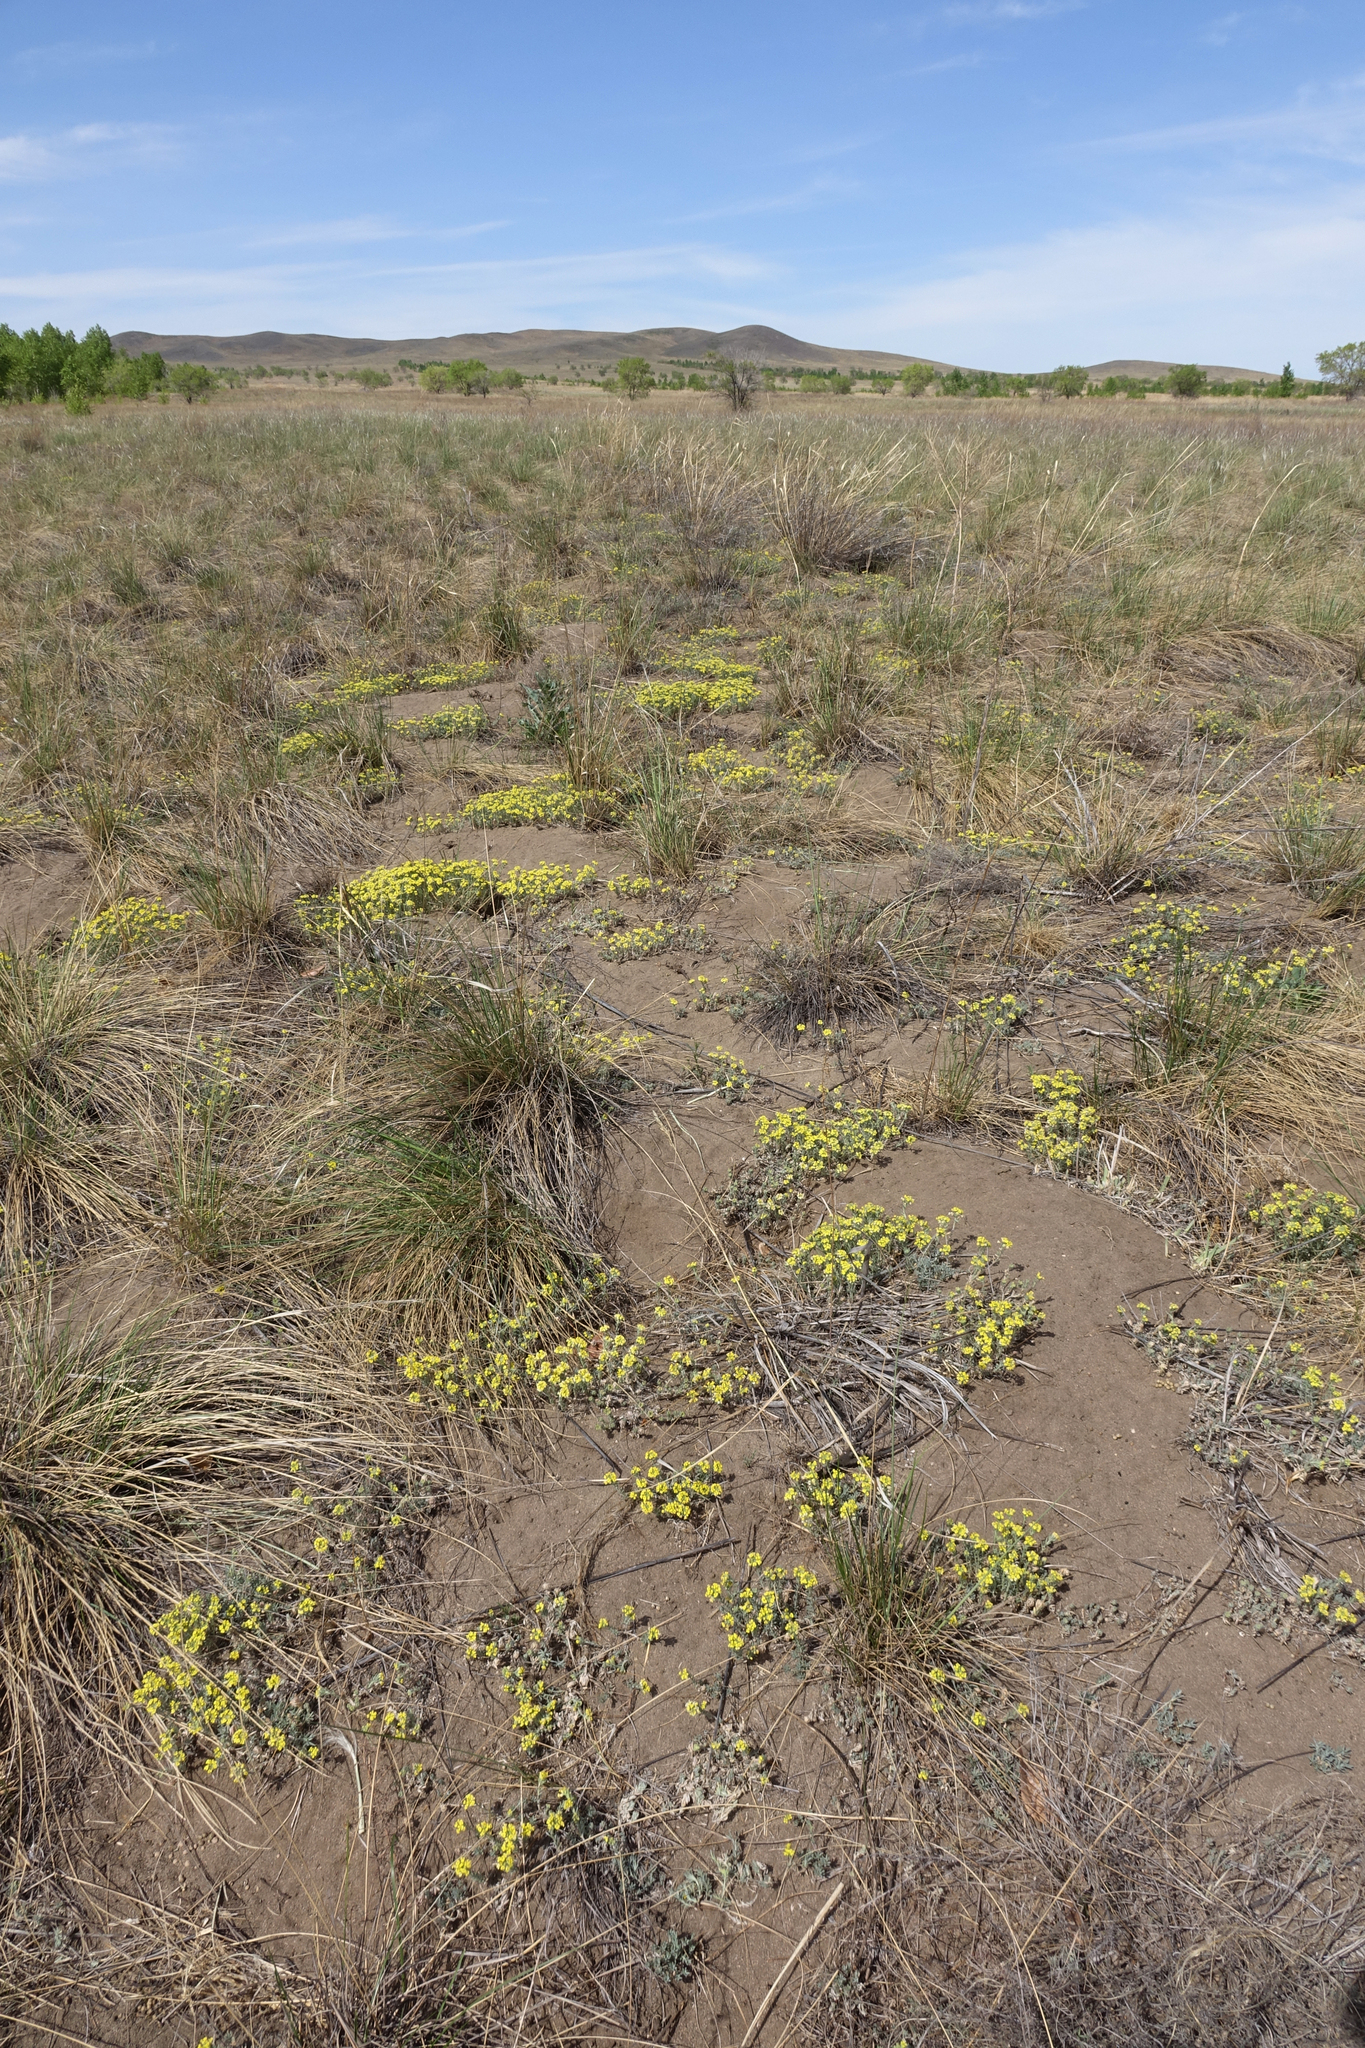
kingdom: Plantae
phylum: Tracheophyta
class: Magnoliopsida
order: Brassicales
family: Brassicaceae
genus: Alyssum
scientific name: Alyssum lenense
